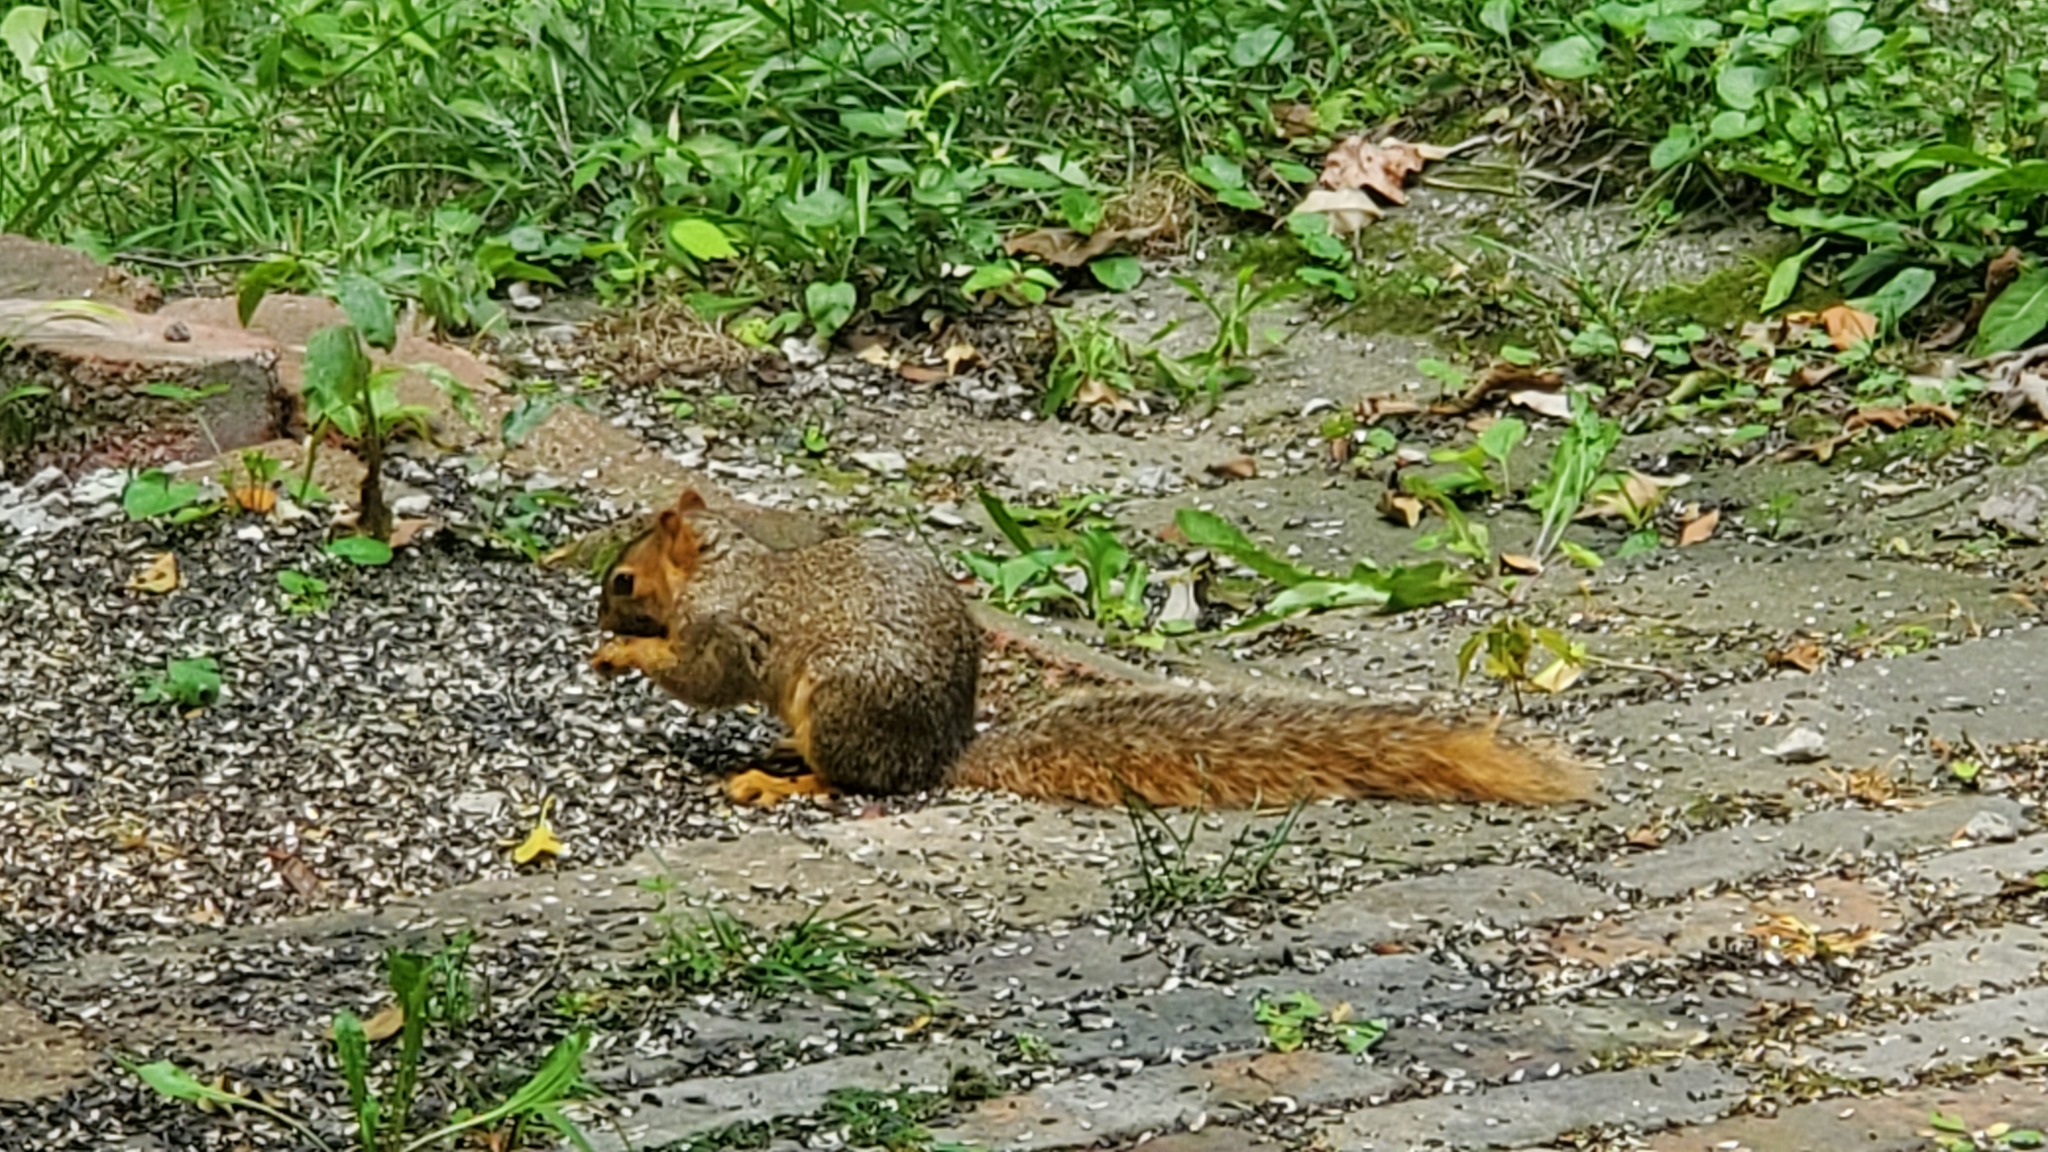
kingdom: Animalia
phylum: Chordata
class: Mammalia
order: Rodentia
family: Sciuridae
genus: Sciurus
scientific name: Sciurus niger
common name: Fox squirrel
